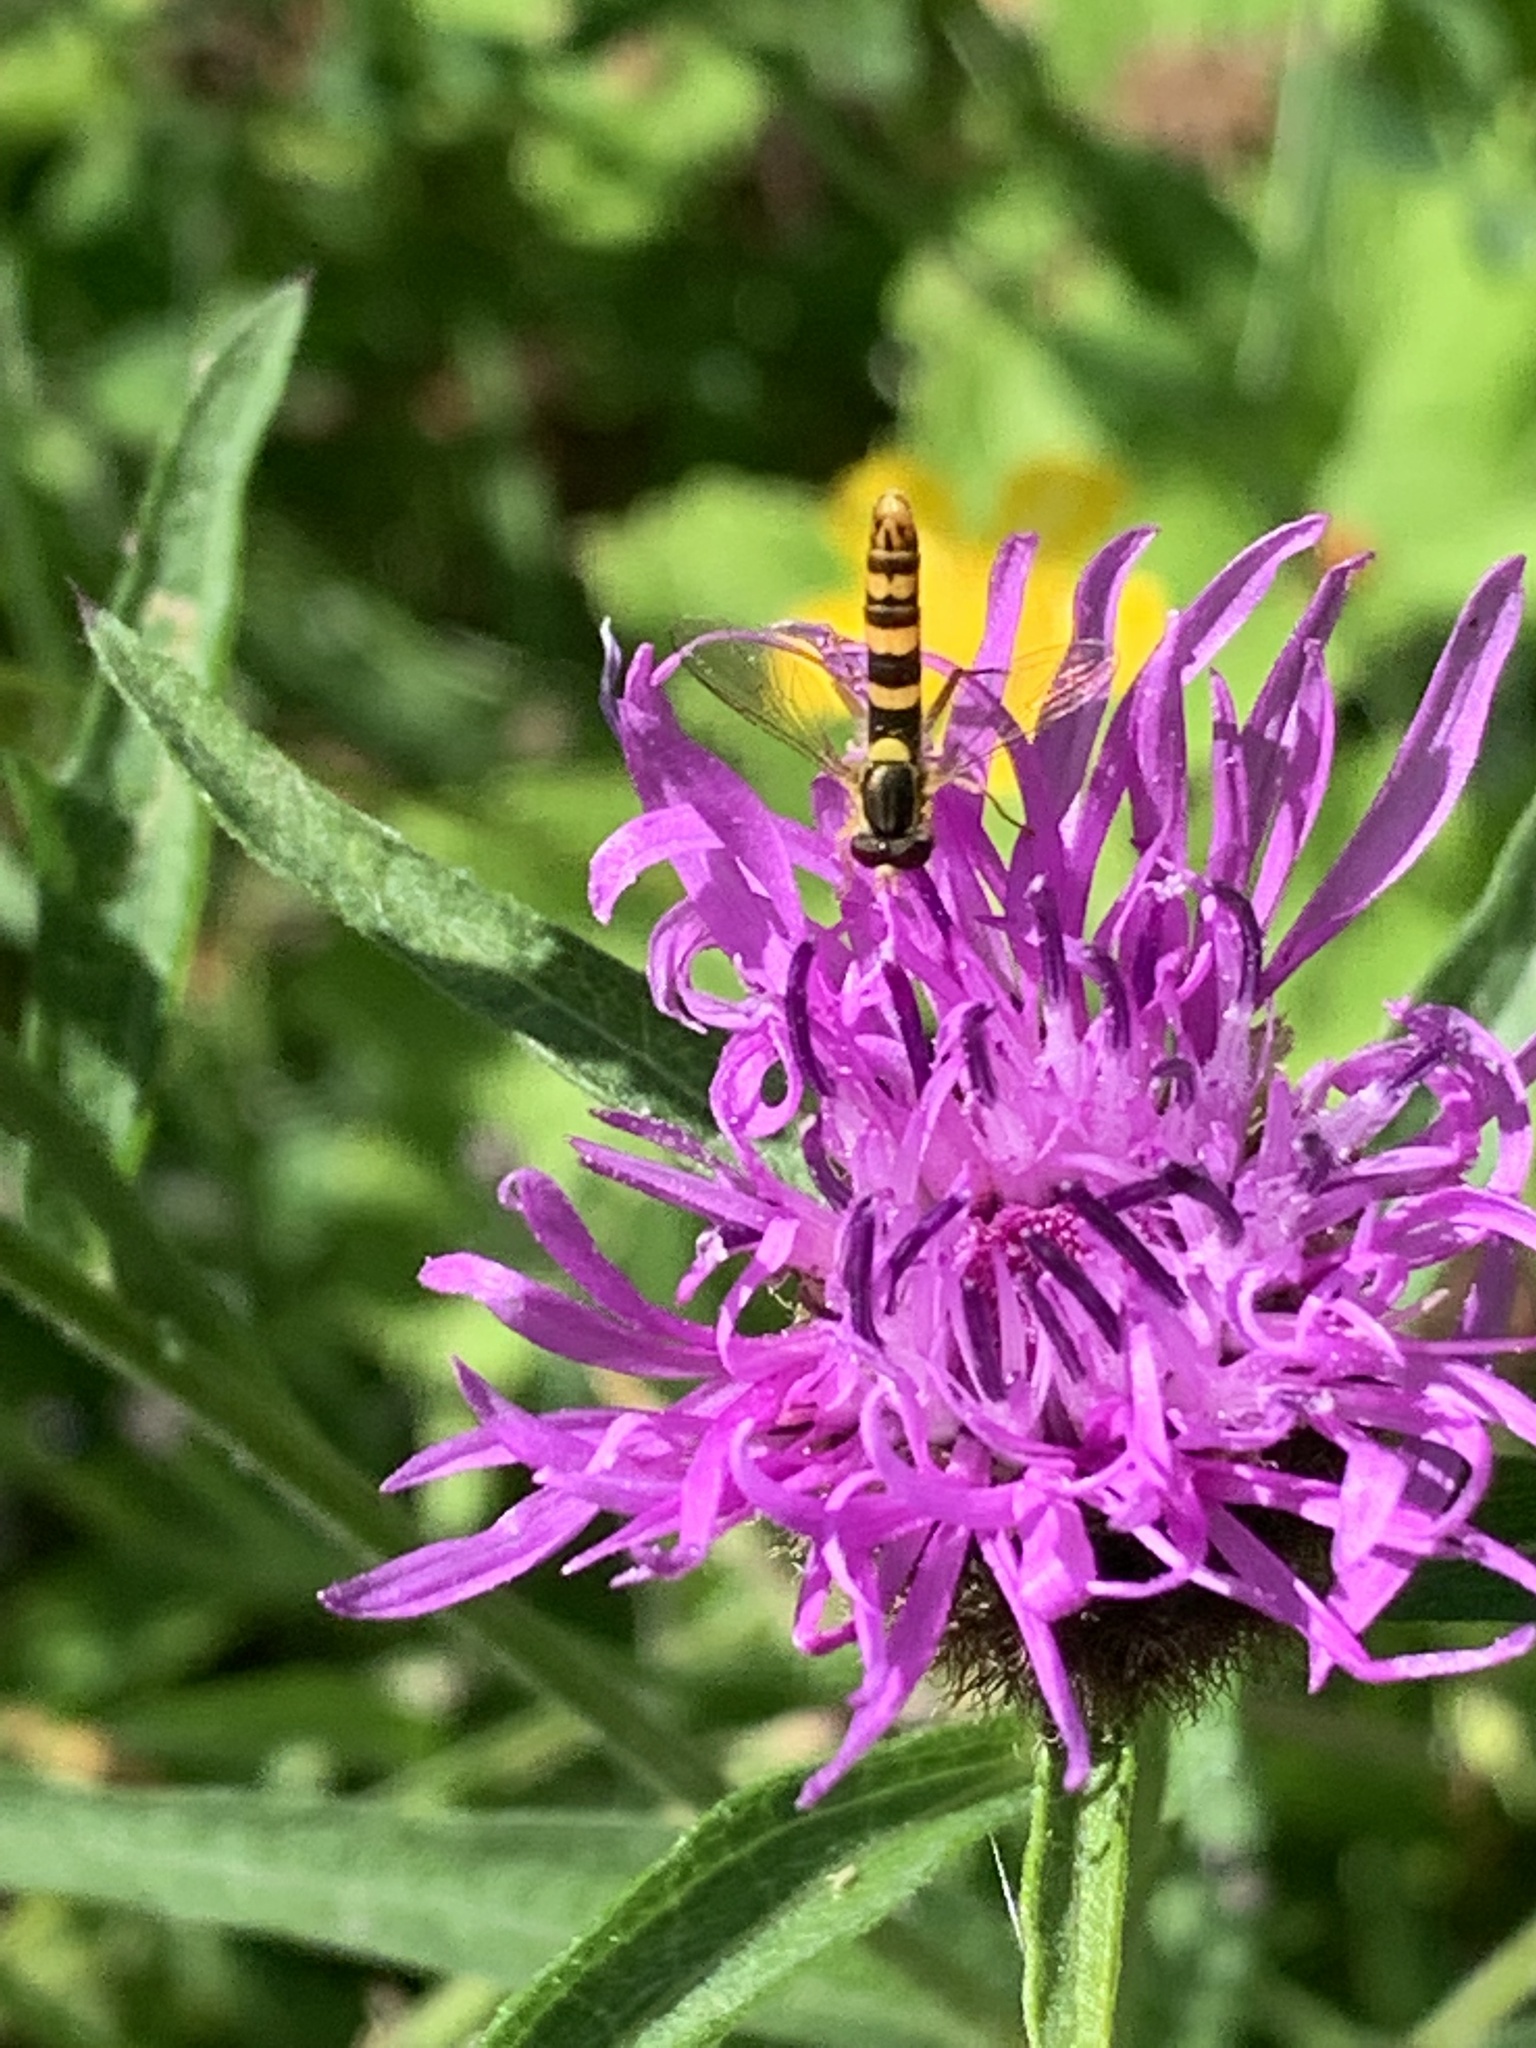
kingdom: Animalia
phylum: Arthropoda
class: Insecta
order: Diptera
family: Syrphidae
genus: Sphaerophoria
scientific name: Sphaerophoria scripta
